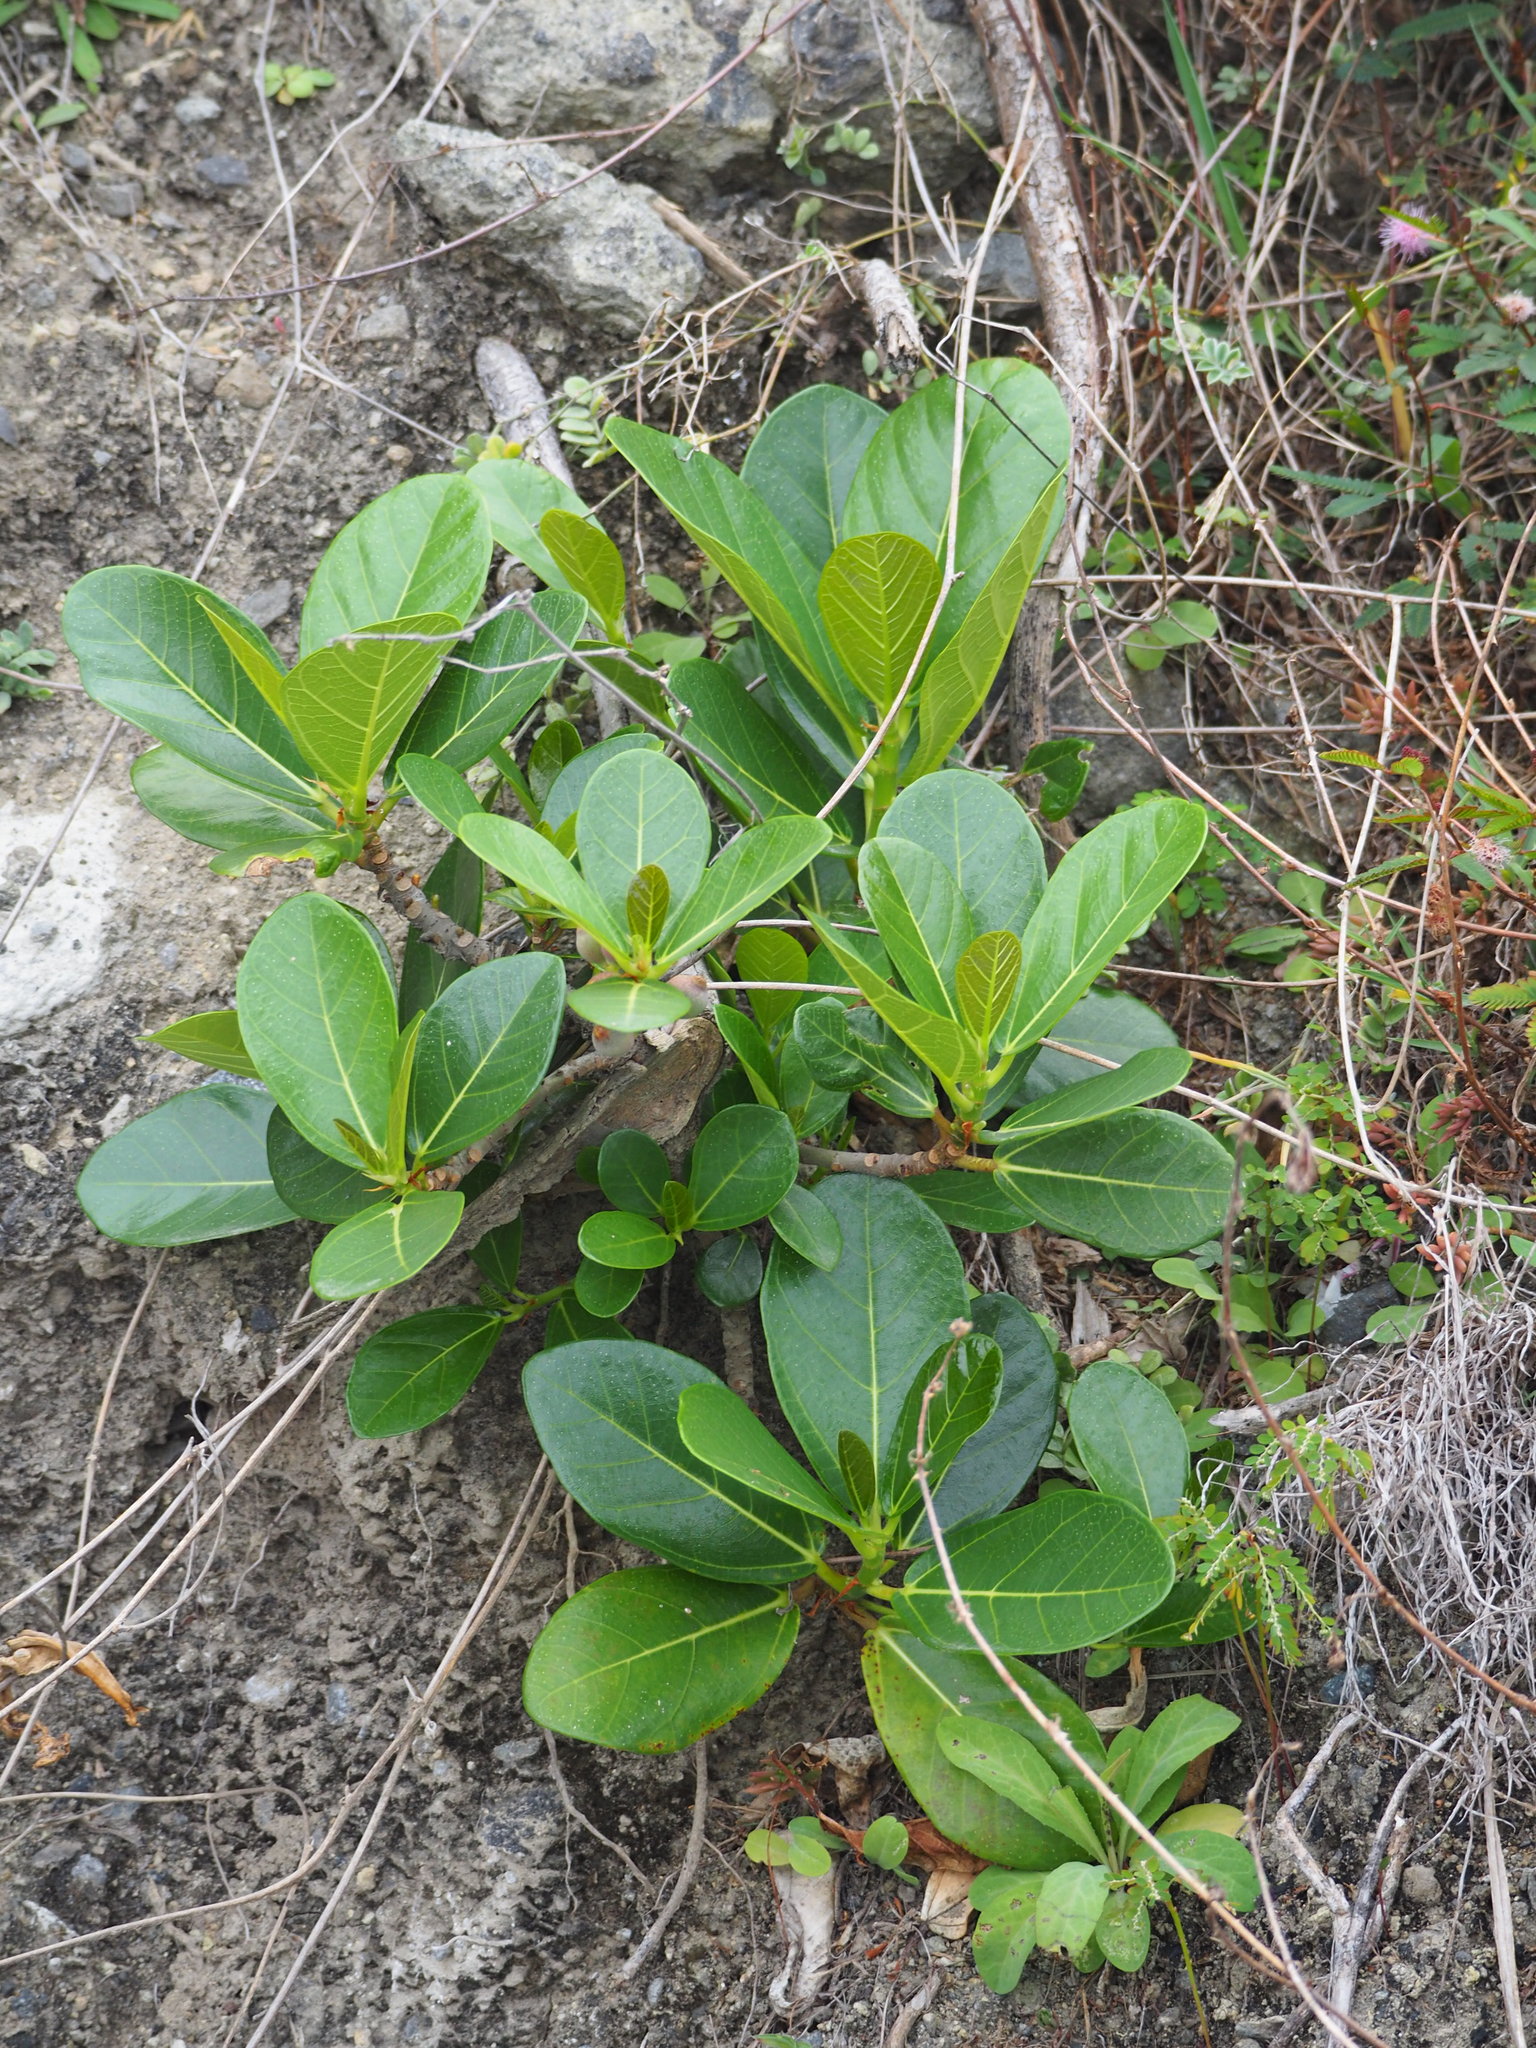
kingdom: Plantae
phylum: Tracheophyta
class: Magnoliopsida
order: Rosales
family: Moraceae
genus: Ficus
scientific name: Ficus pedunculosa
